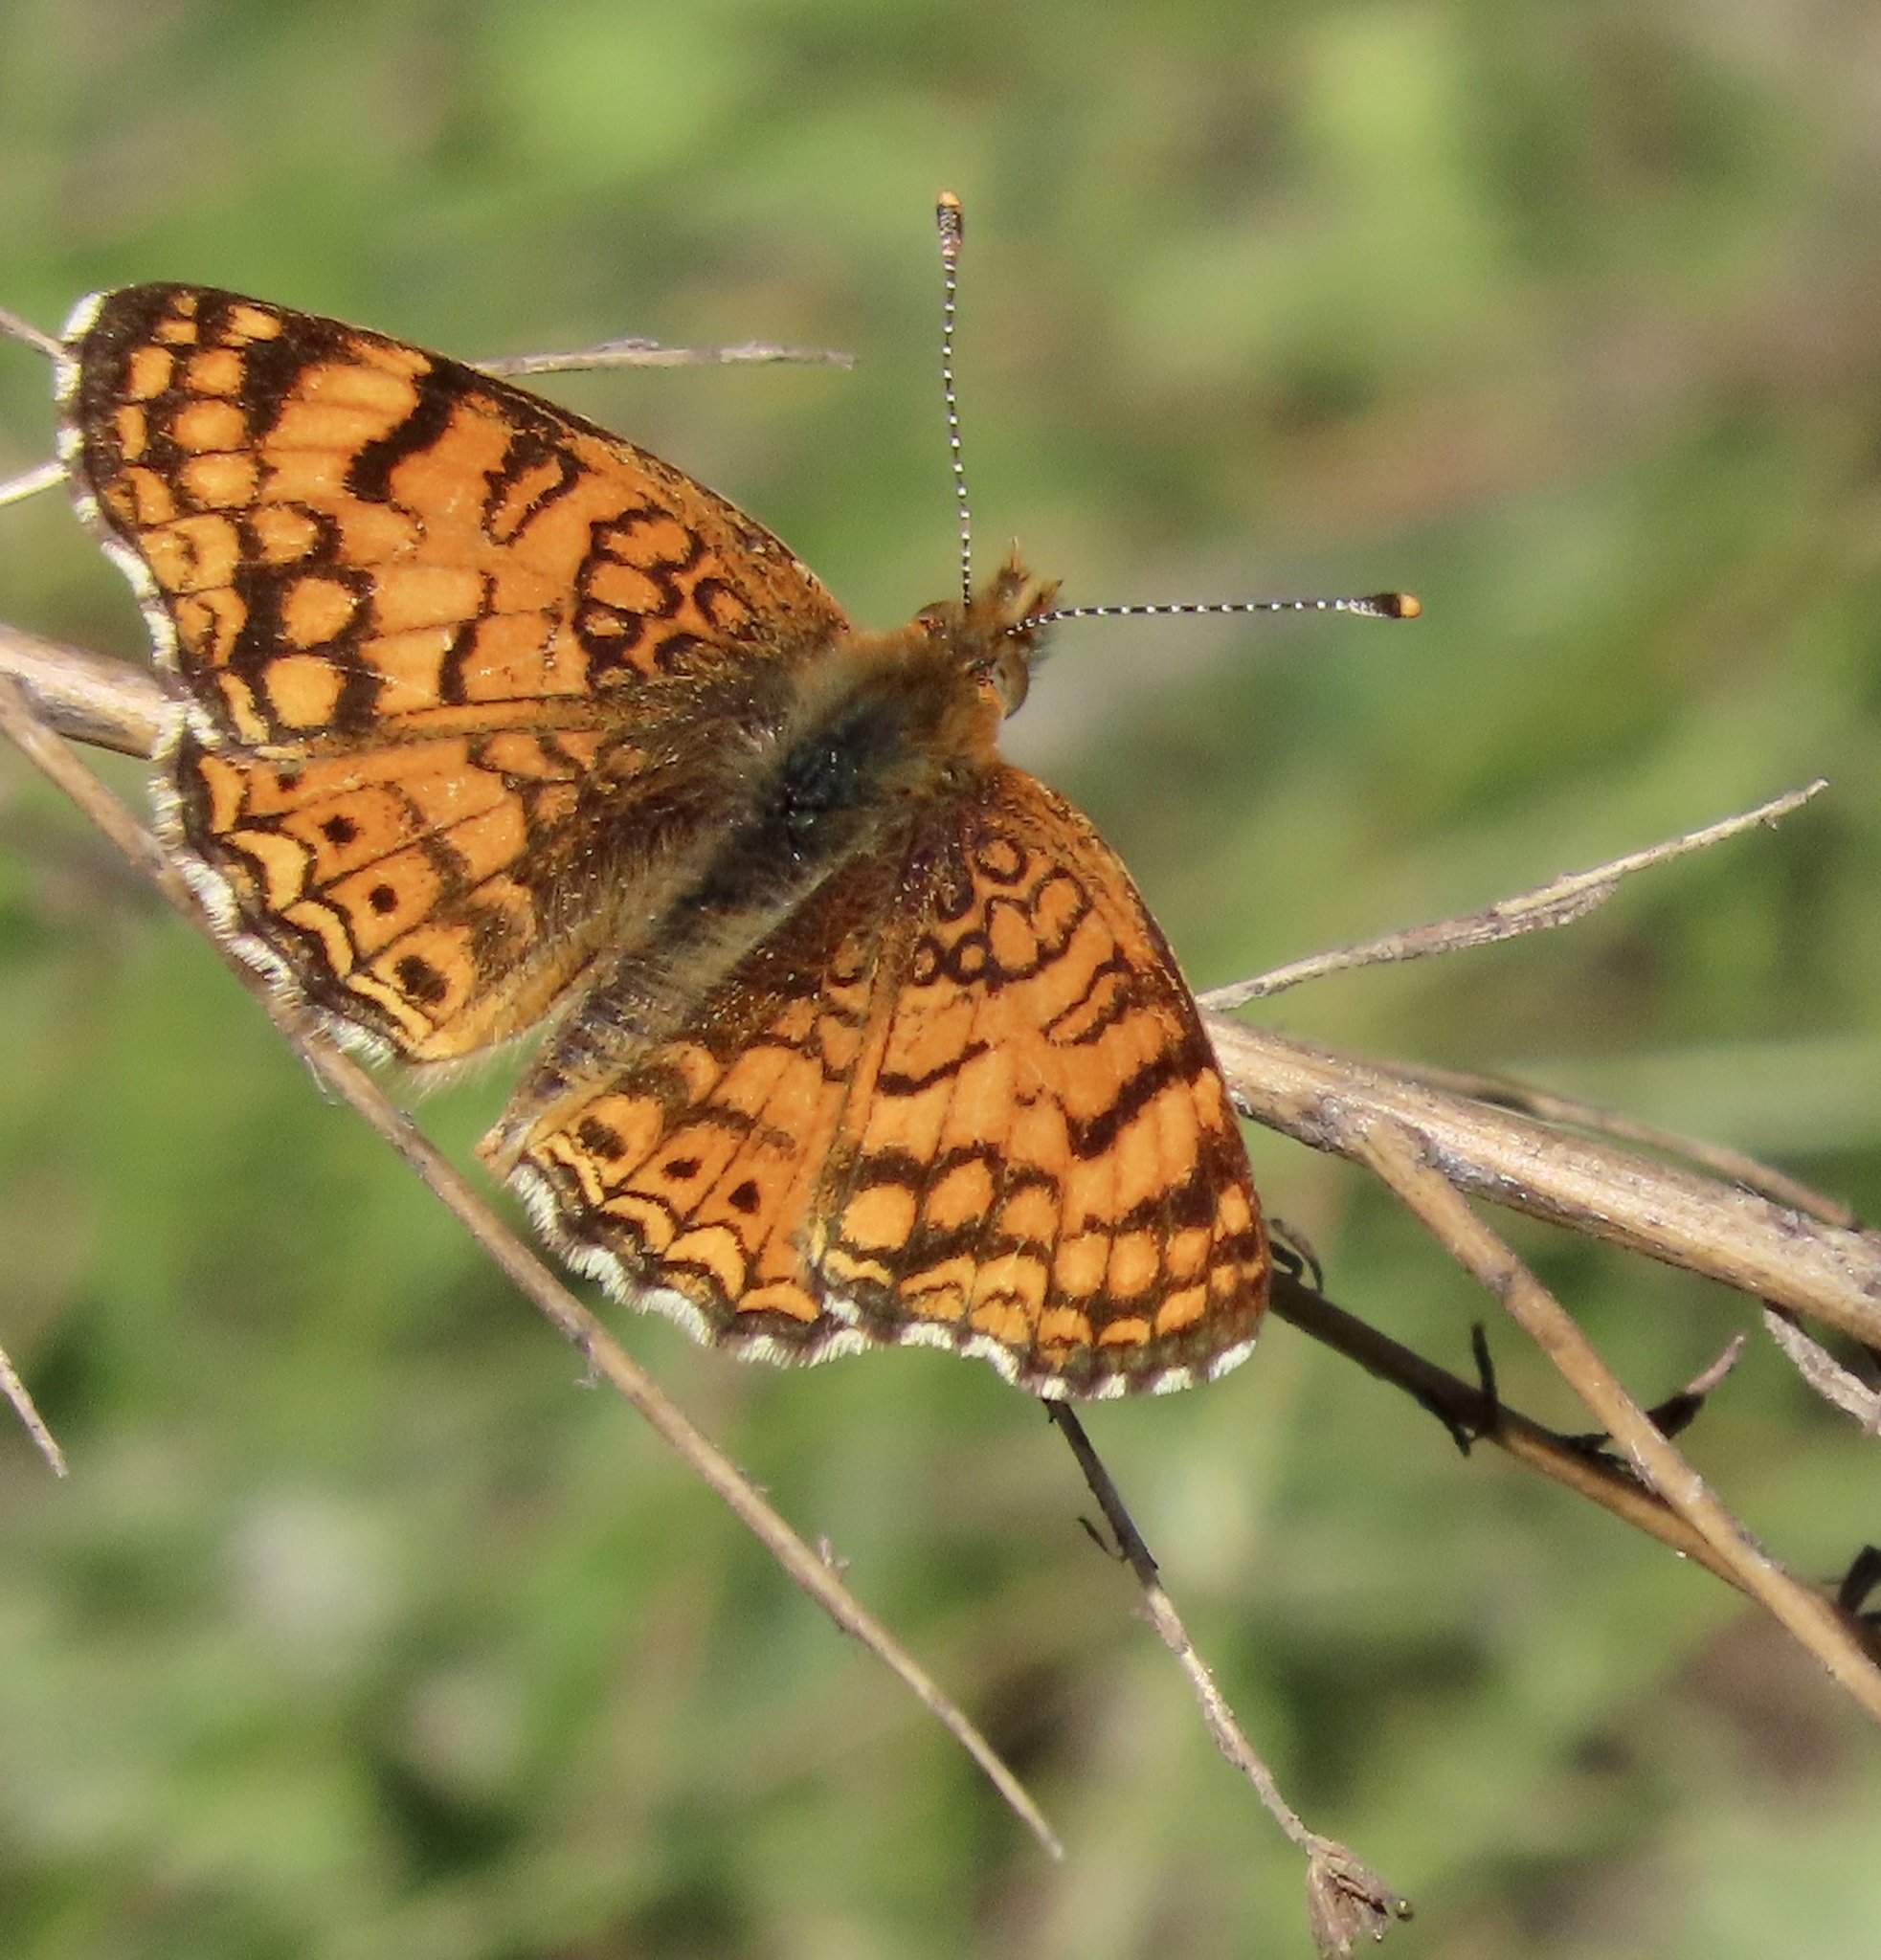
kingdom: Animalia
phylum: Arthropoda
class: Insecta
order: Lepidoptera
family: Nymphalidae
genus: Eresia
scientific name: Eresia aveyrona
